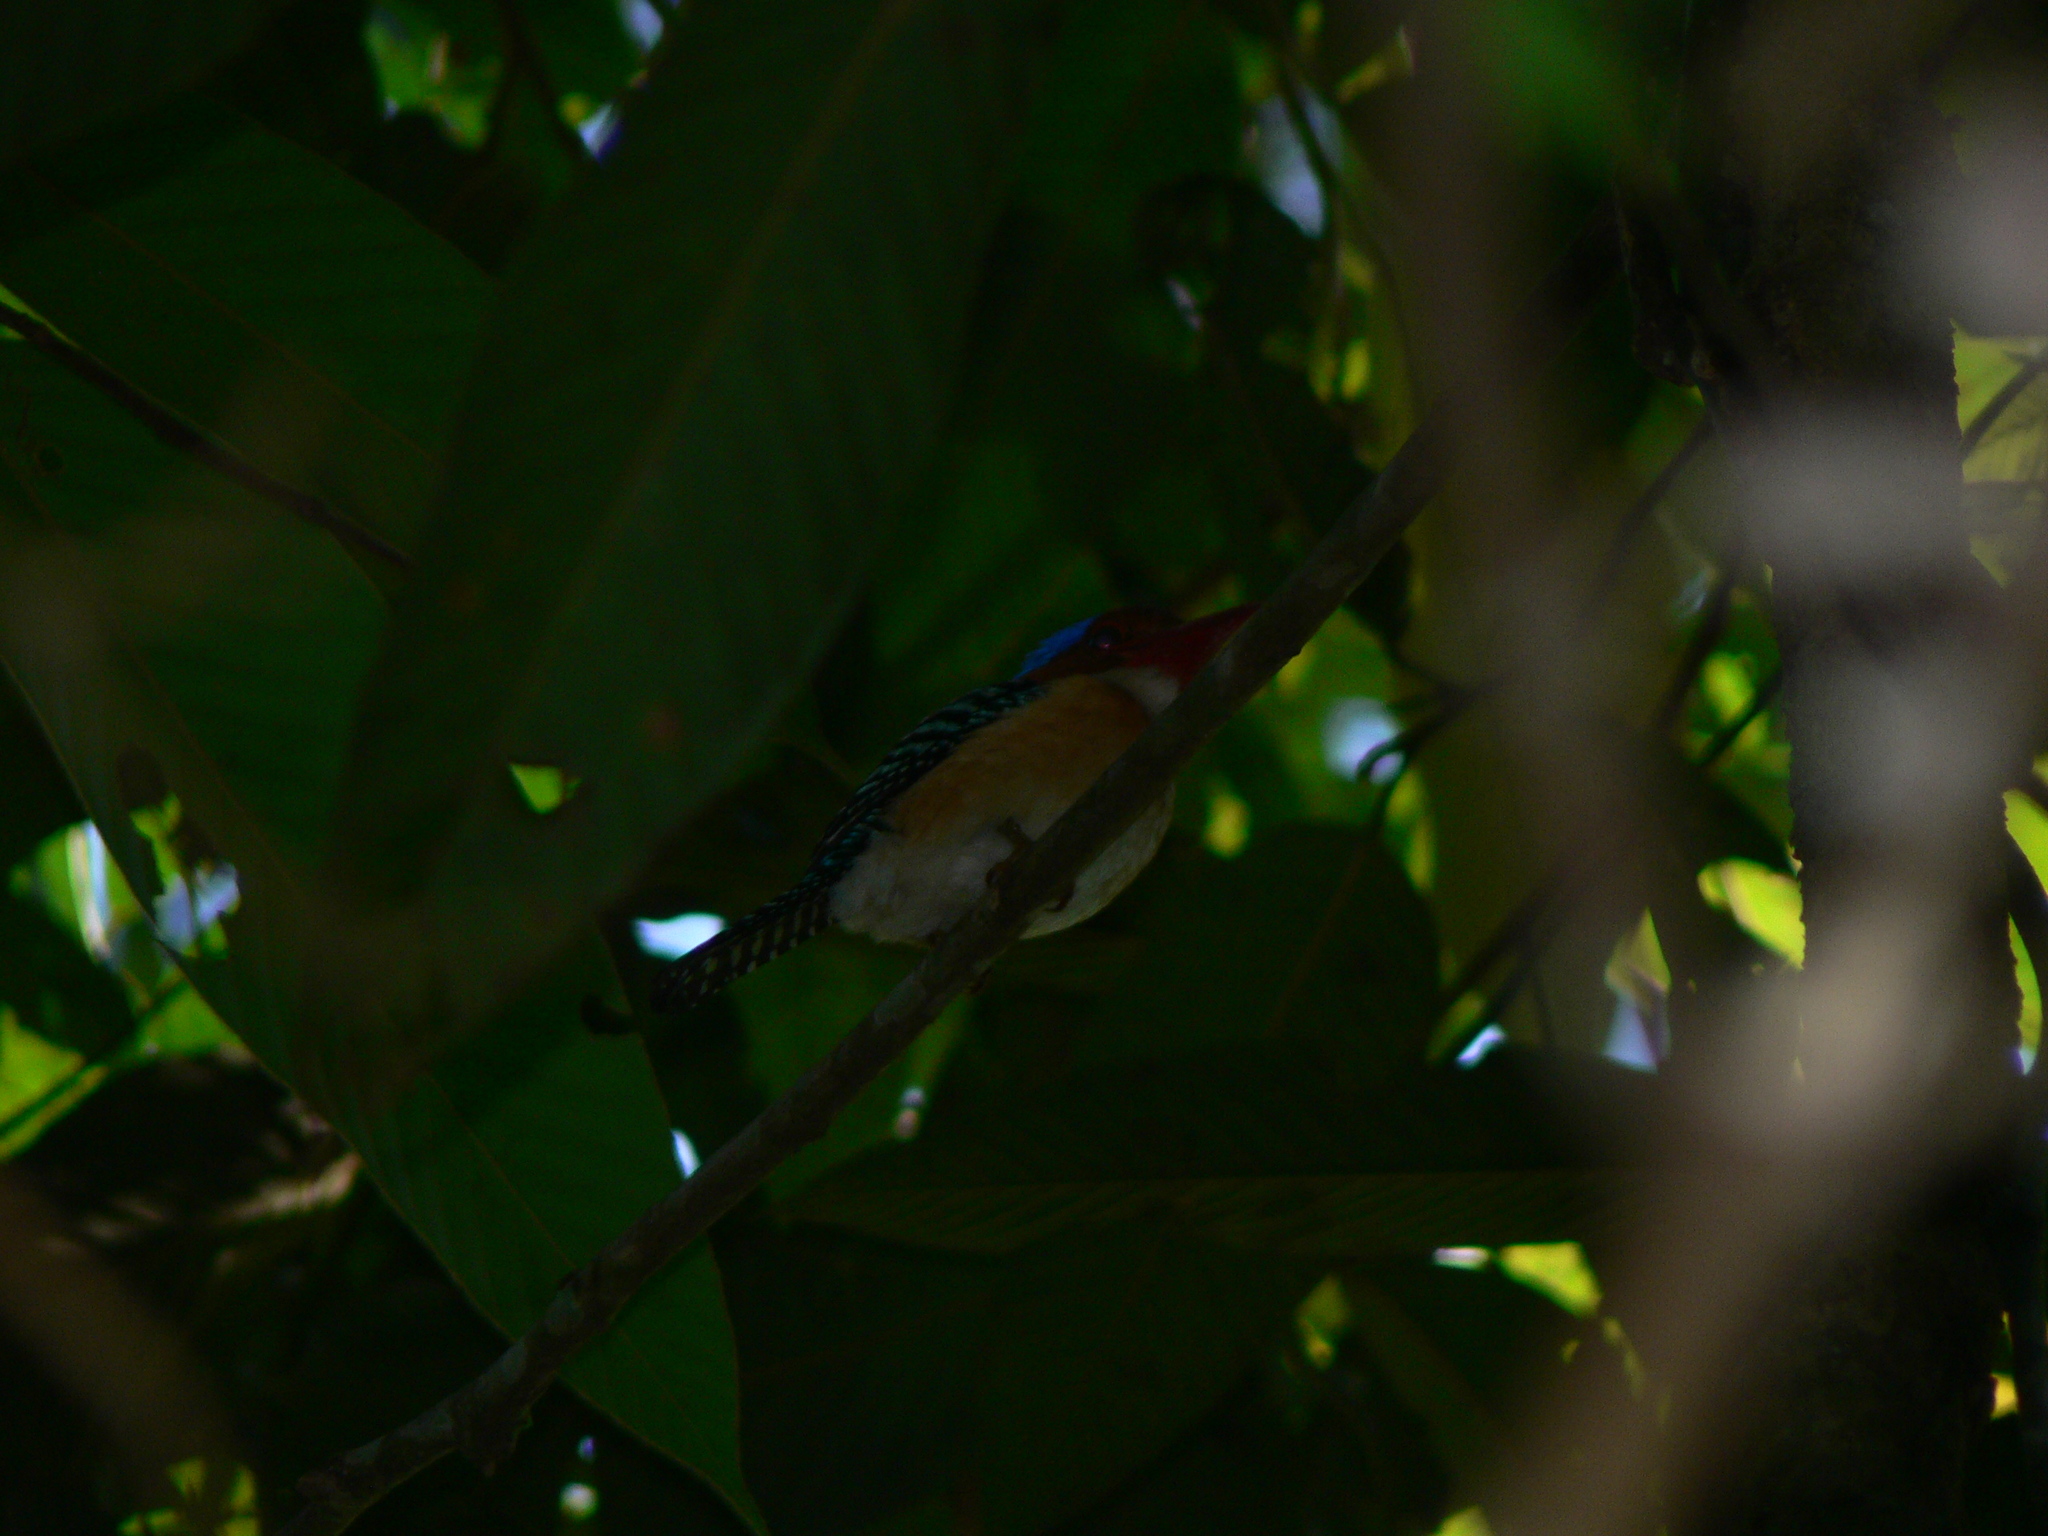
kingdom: Animalia
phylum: Chordata
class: Aves
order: Coraciiformes
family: Alcedinidae
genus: Lacedo
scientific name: Lacedo pulchella
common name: Banded kingfisher
